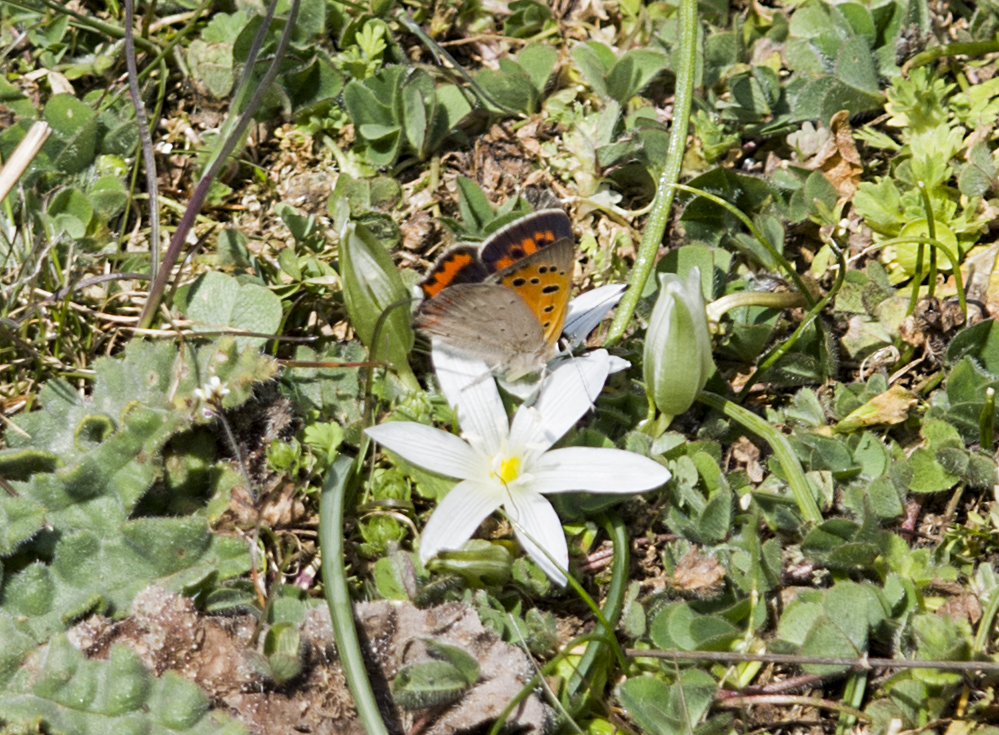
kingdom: Animalia
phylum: Arthropoda
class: Insecta
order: Lepidoptera
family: Lycaenidae
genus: Lycaena
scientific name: Lycaena phlaeas
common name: Small copper
